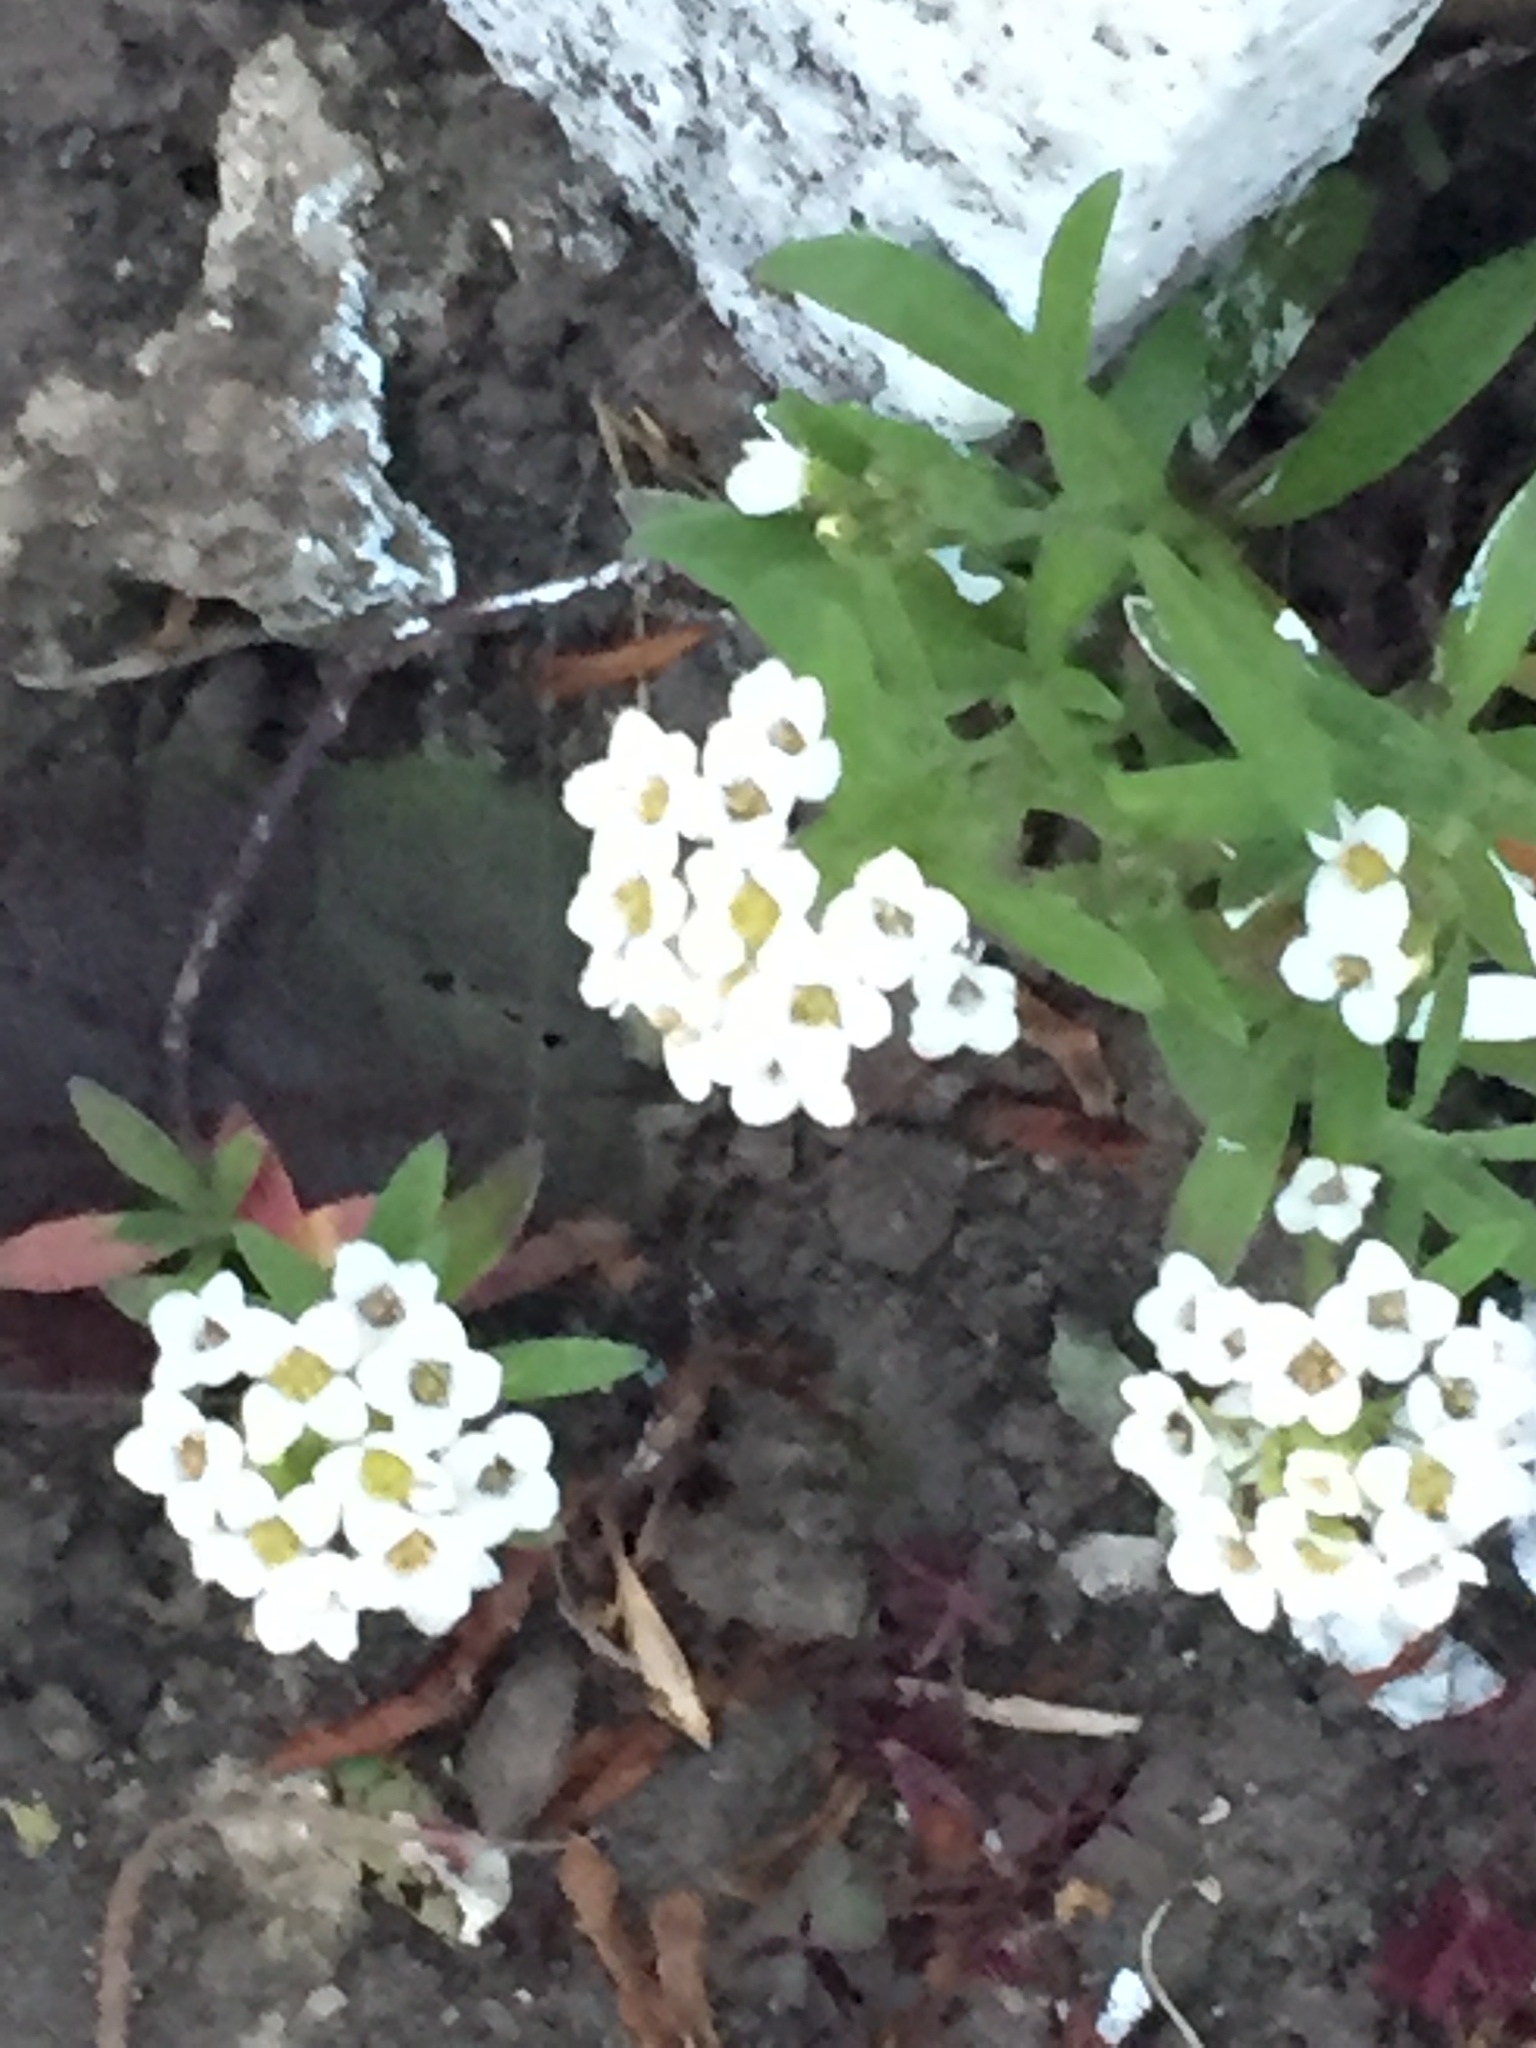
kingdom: Plantae
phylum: Tracheophyta
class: Magnoliopsida
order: Brassicales
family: Brassicaceae
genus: Lobularia
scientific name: Lobularia maritima
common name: Sweet alison
